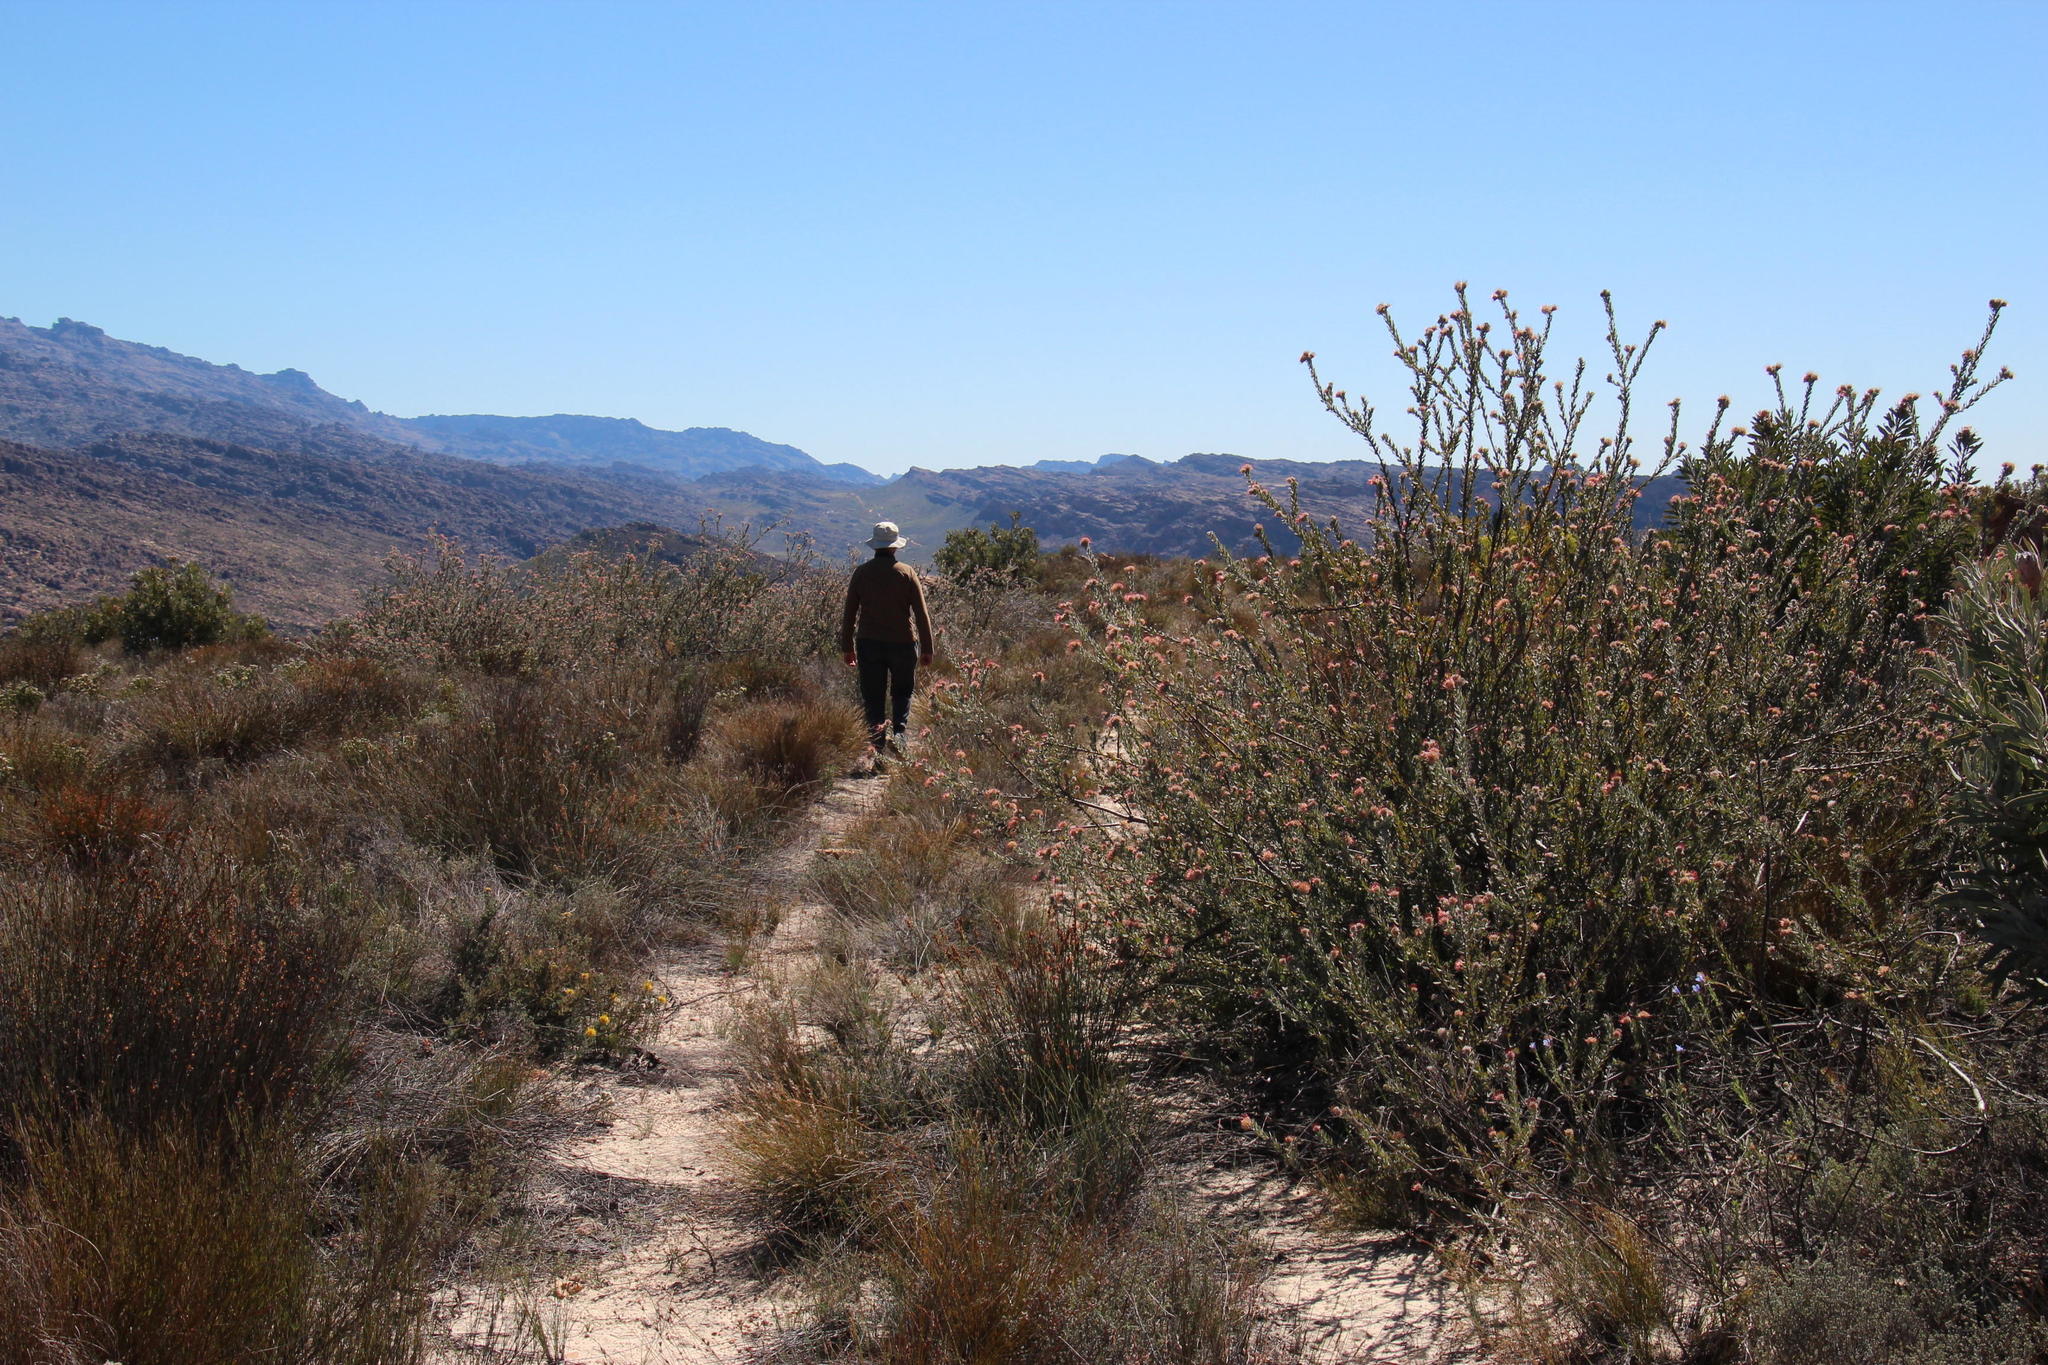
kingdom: Plantae
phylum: Tracheophyta
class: Magnoliopsida
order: Proteales
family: Proteaceae
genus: Leucospermum
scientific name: Leucospermum calligerum
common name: Arid pincushion
